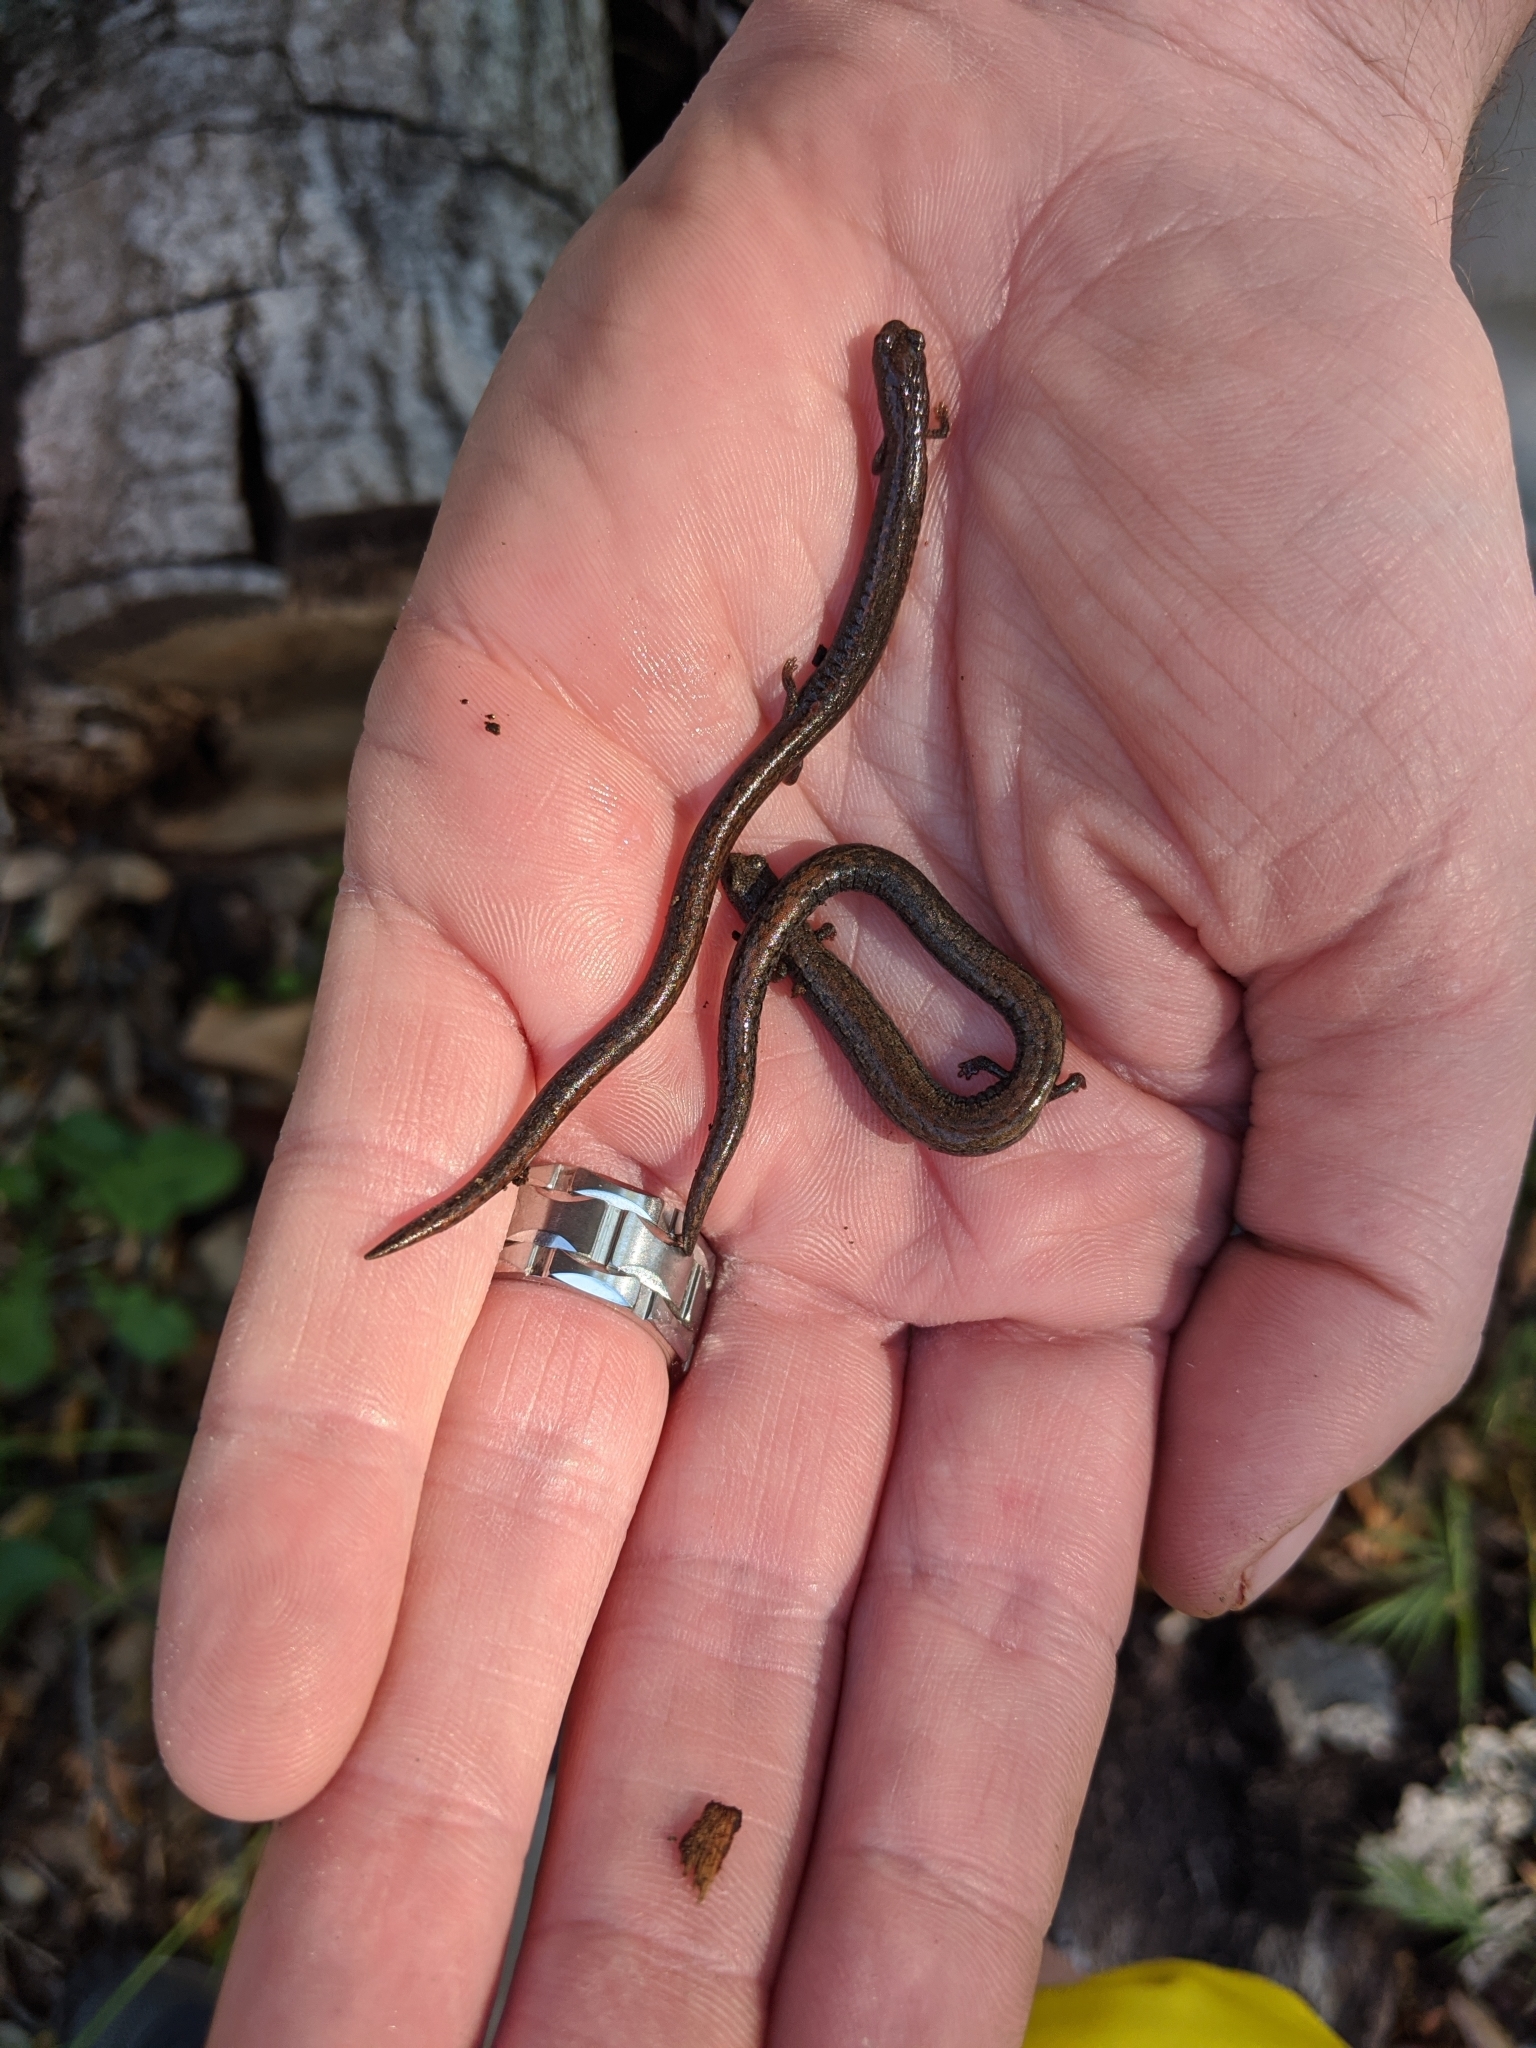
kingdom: Animalia
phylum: Chordata
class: Amphibia
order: Caudata
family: Plethodontidae
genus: Batrachoseps
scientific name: Batrachoseps nigriventris
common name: Black-bellied slender salamander
